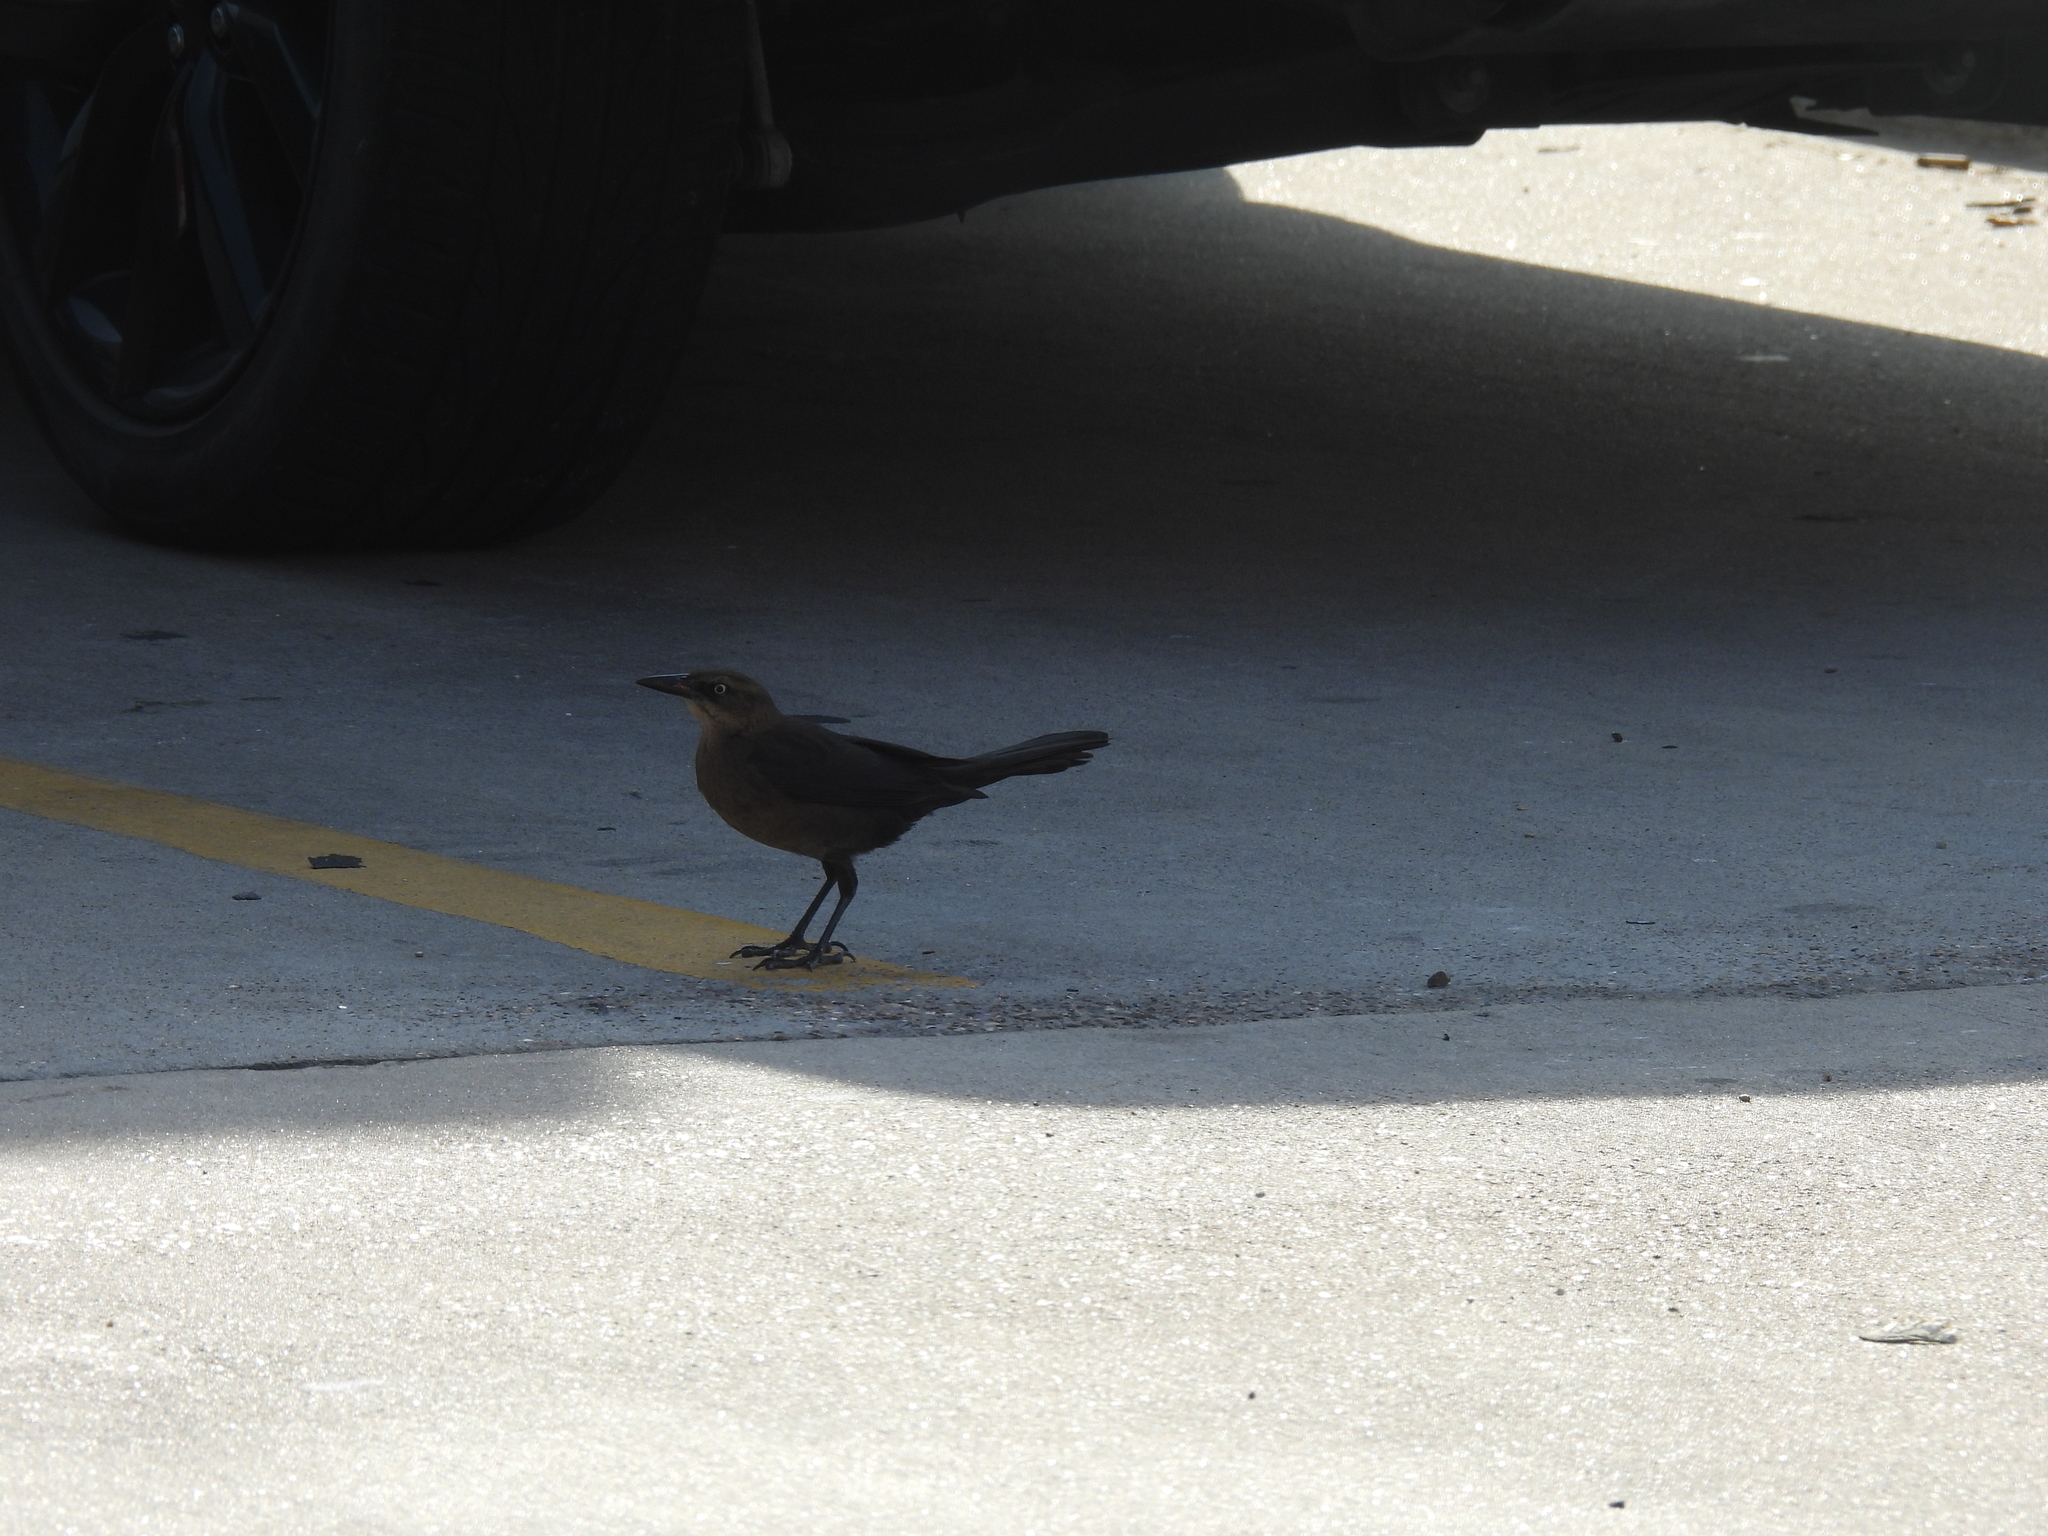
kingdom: Animalia
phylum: Chordata
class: Aves
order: Passeriformes
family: Icteridae
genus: Quiscalus
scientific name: Quiscalus mexicanus
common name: Great-tailed grackle
